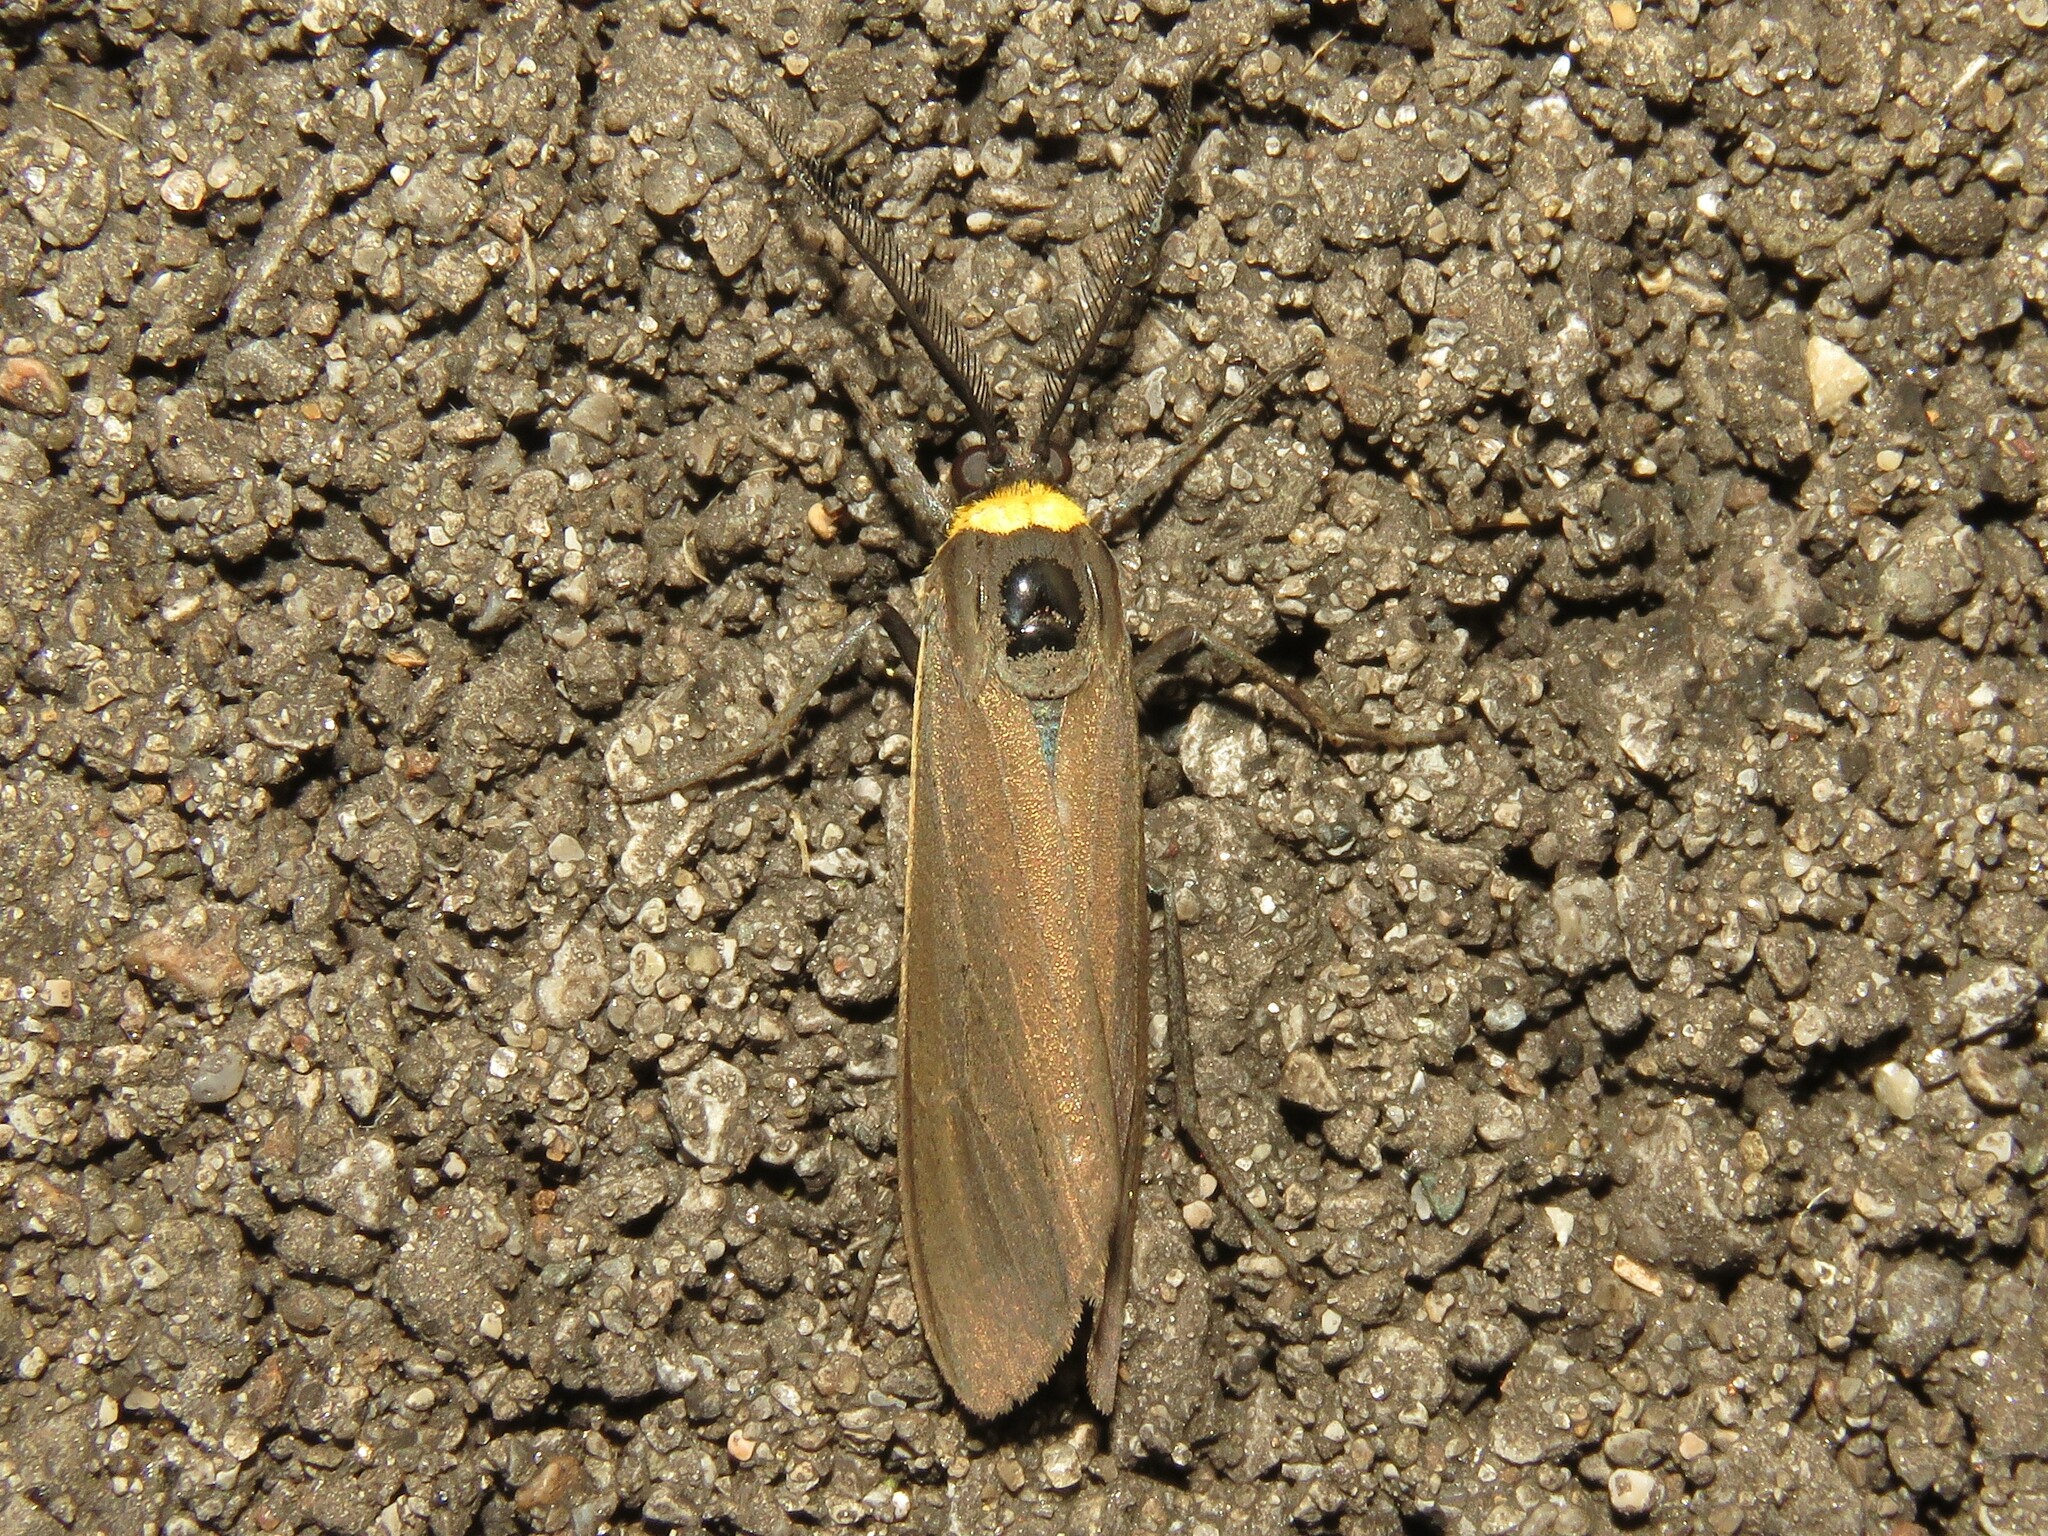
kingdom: Animalia
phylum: Arthropoda
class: Insecta
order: Lepidoptera
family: Erebidae
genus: Cisseps
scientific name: Cisseps fulvicollis
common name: Yellow-collared scape moth
